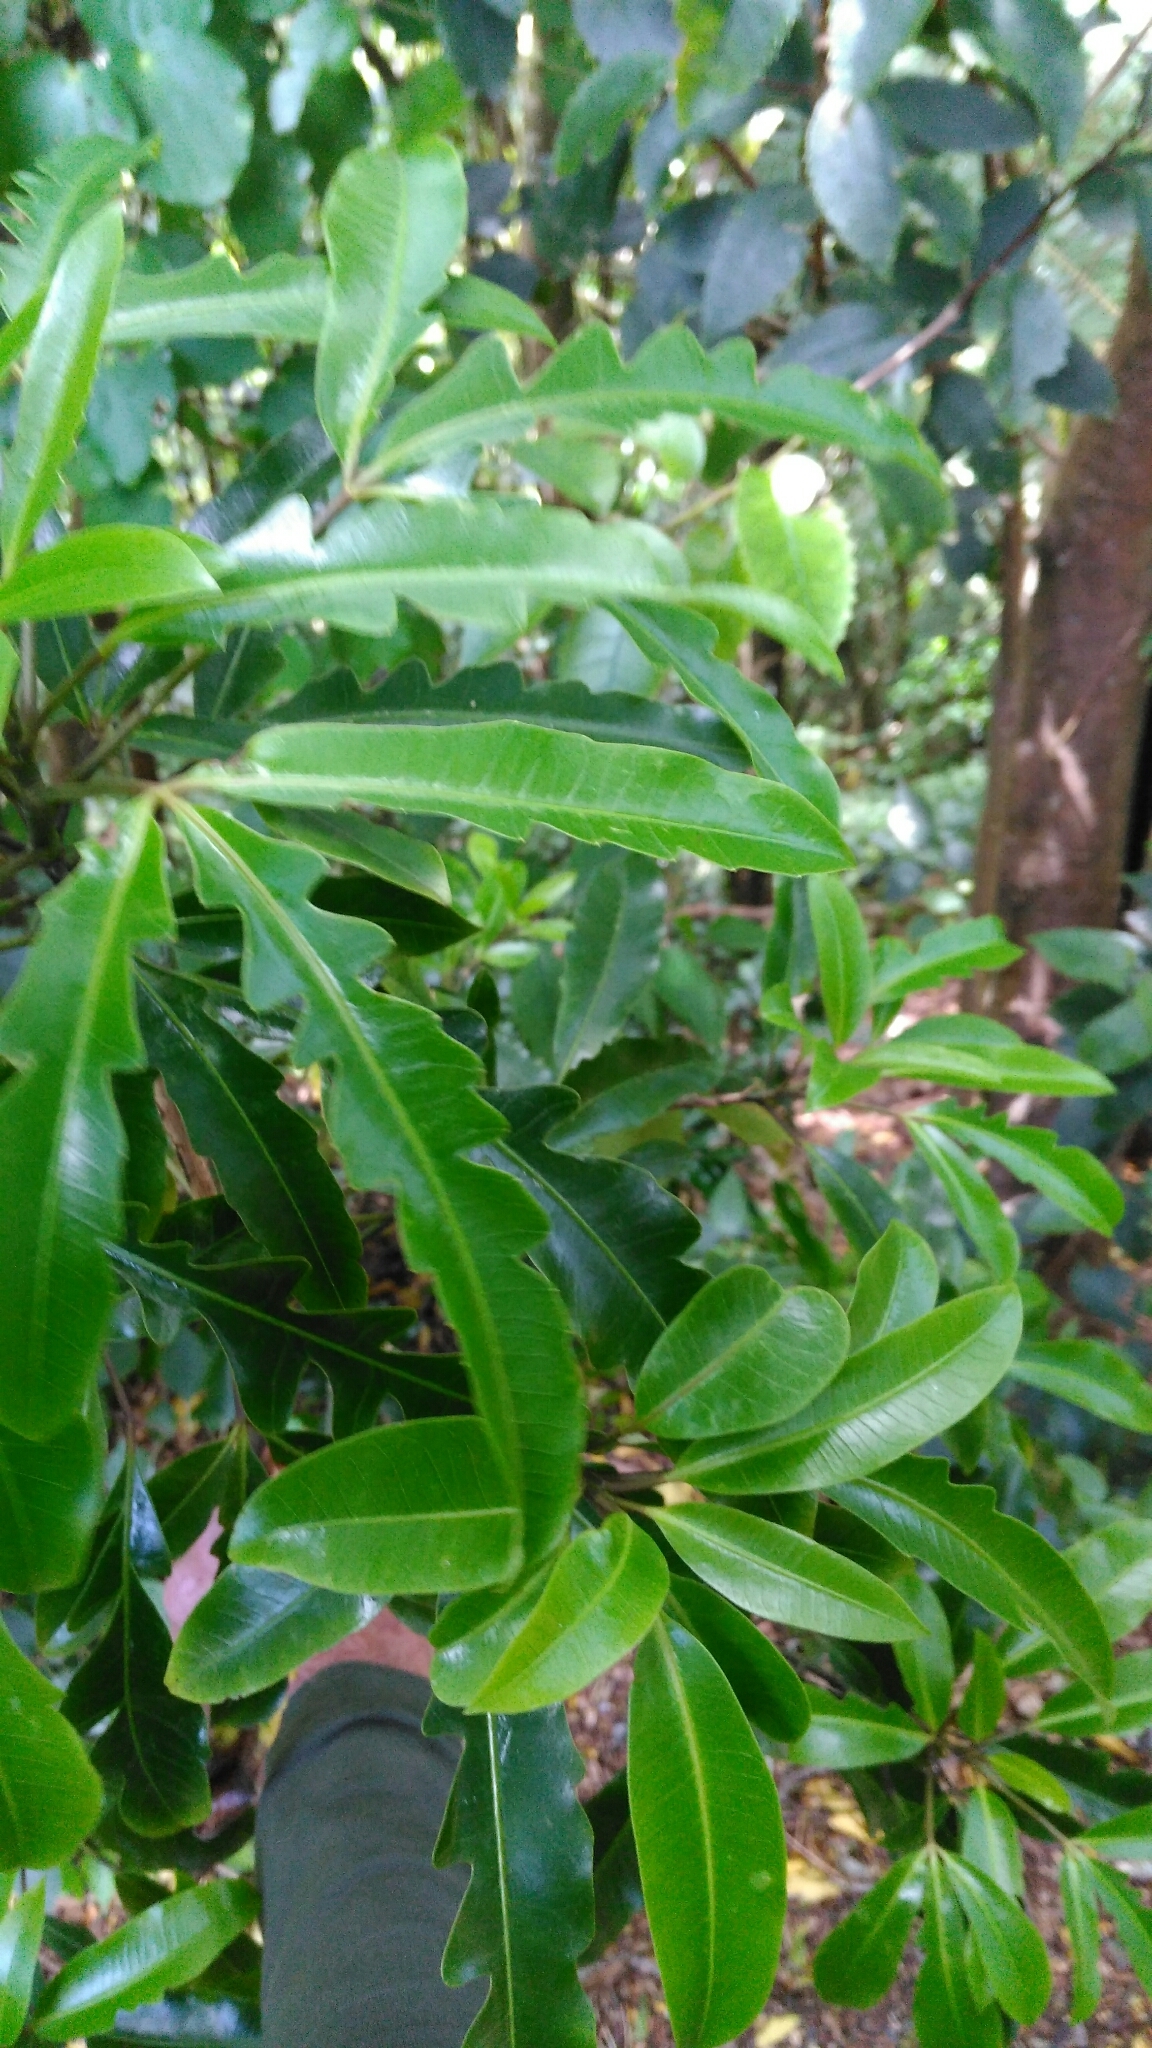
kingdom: Plantae
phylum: Tracheophyta
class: Magnoliopsida
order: Apiales
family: Araliaceae
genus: Raukaua
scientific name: Raukaua edgerleyi
